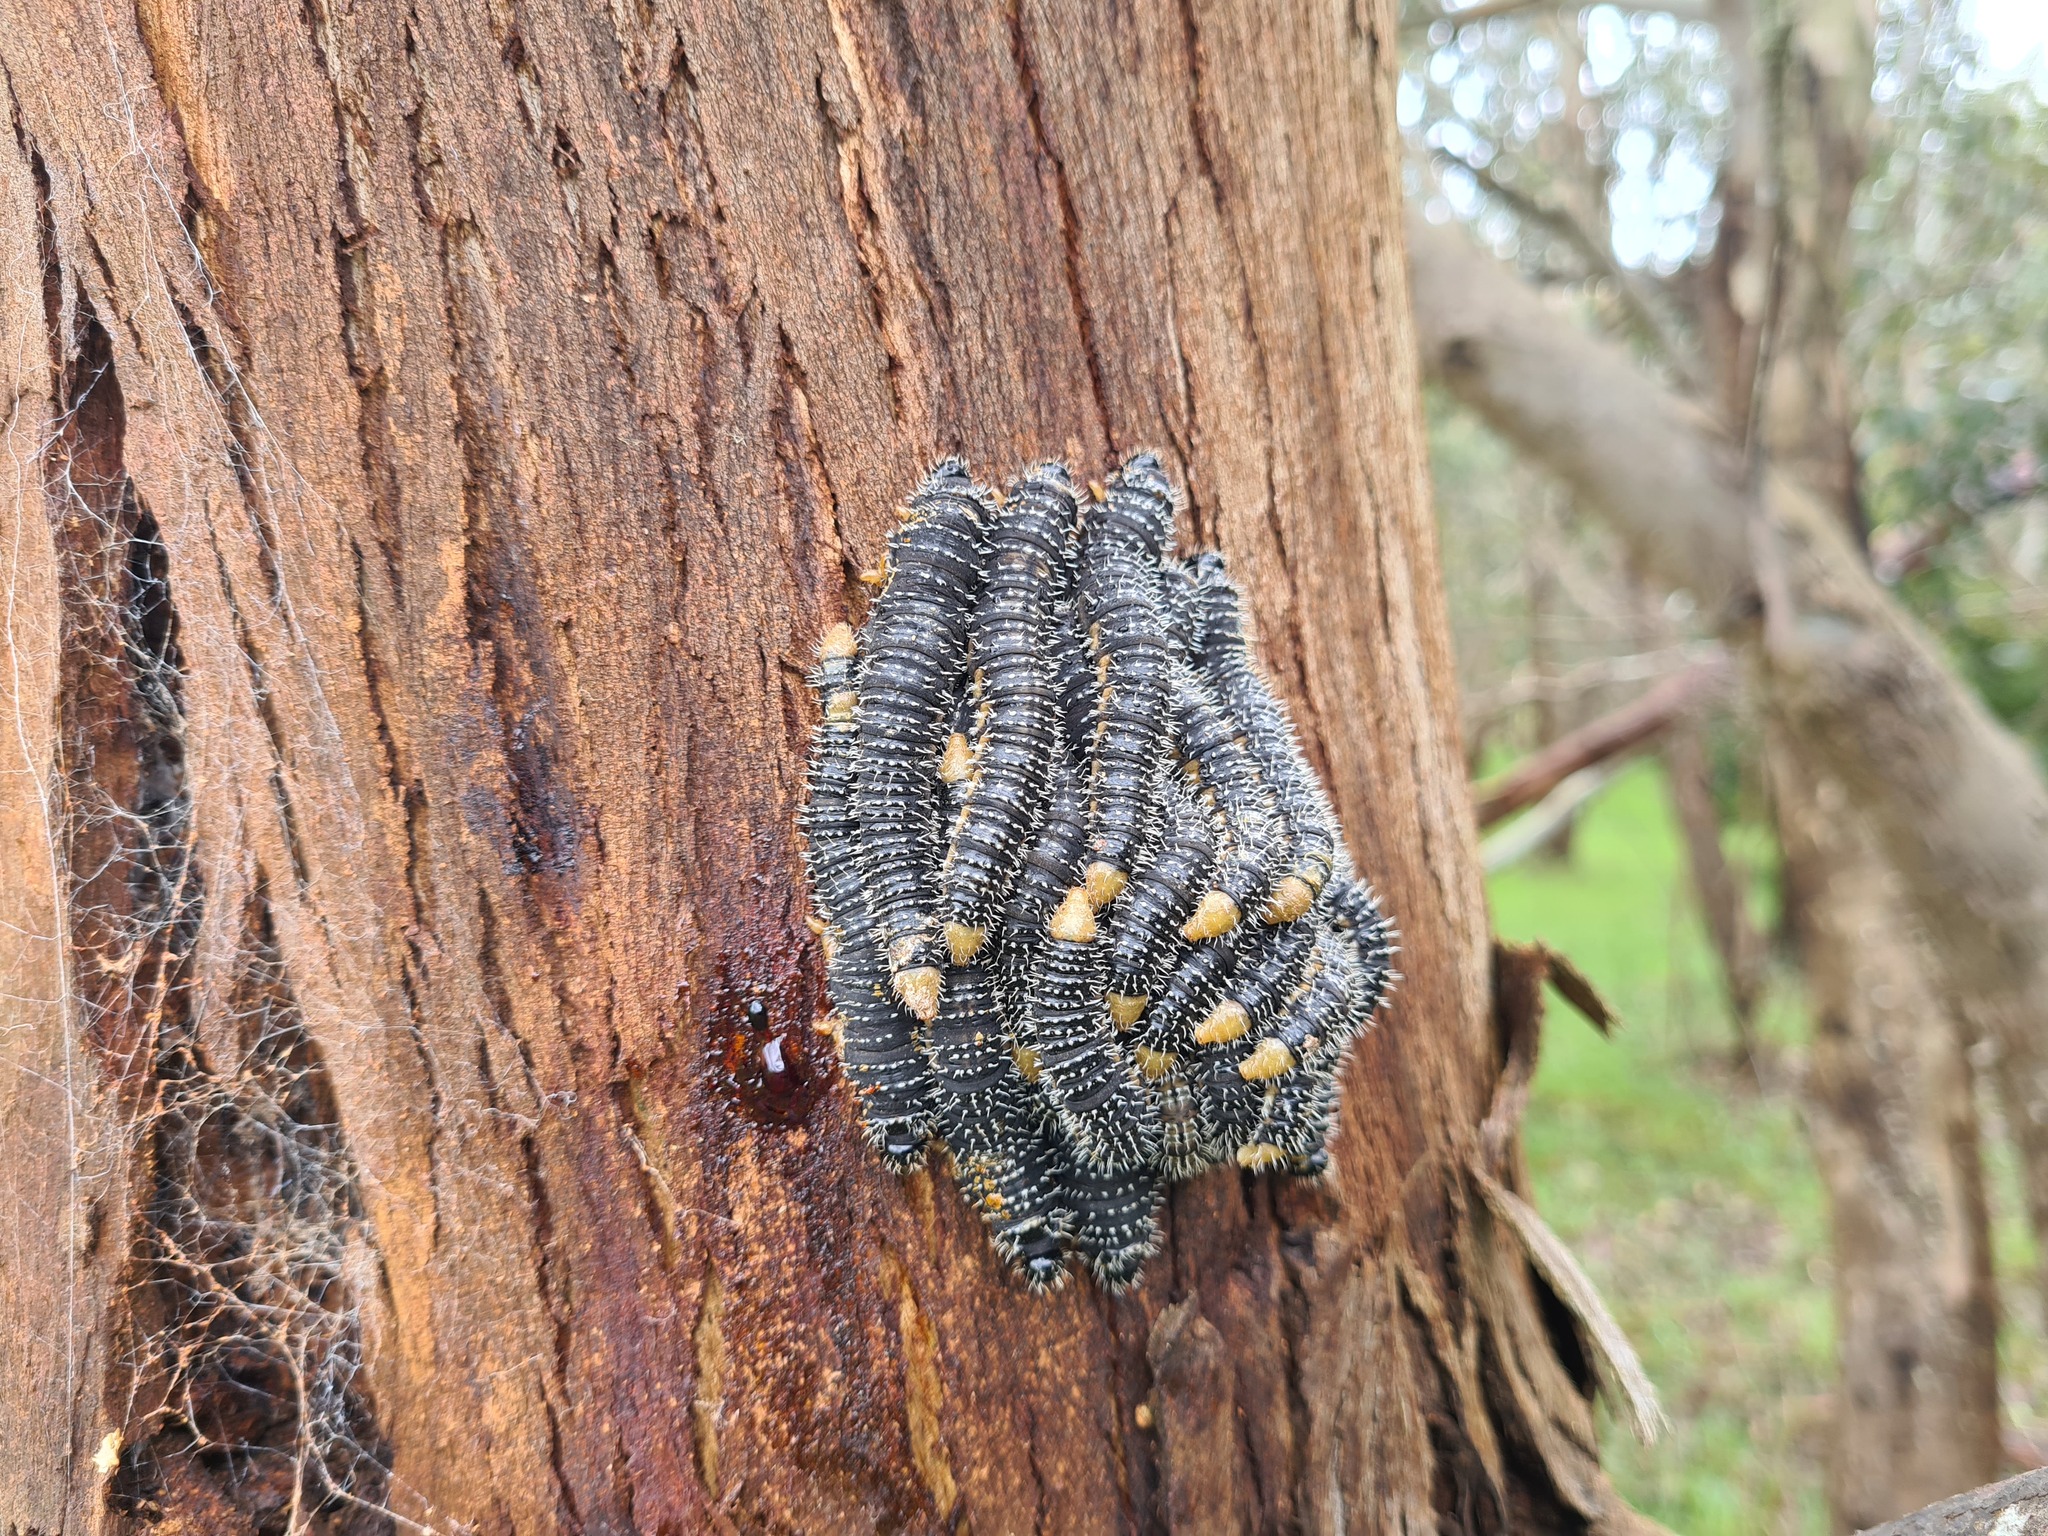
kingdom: Animalia
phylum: Arthropoda
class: Insecta
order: Hymenoptera
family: Pergidae
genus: Perga
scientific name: Perga affinis
